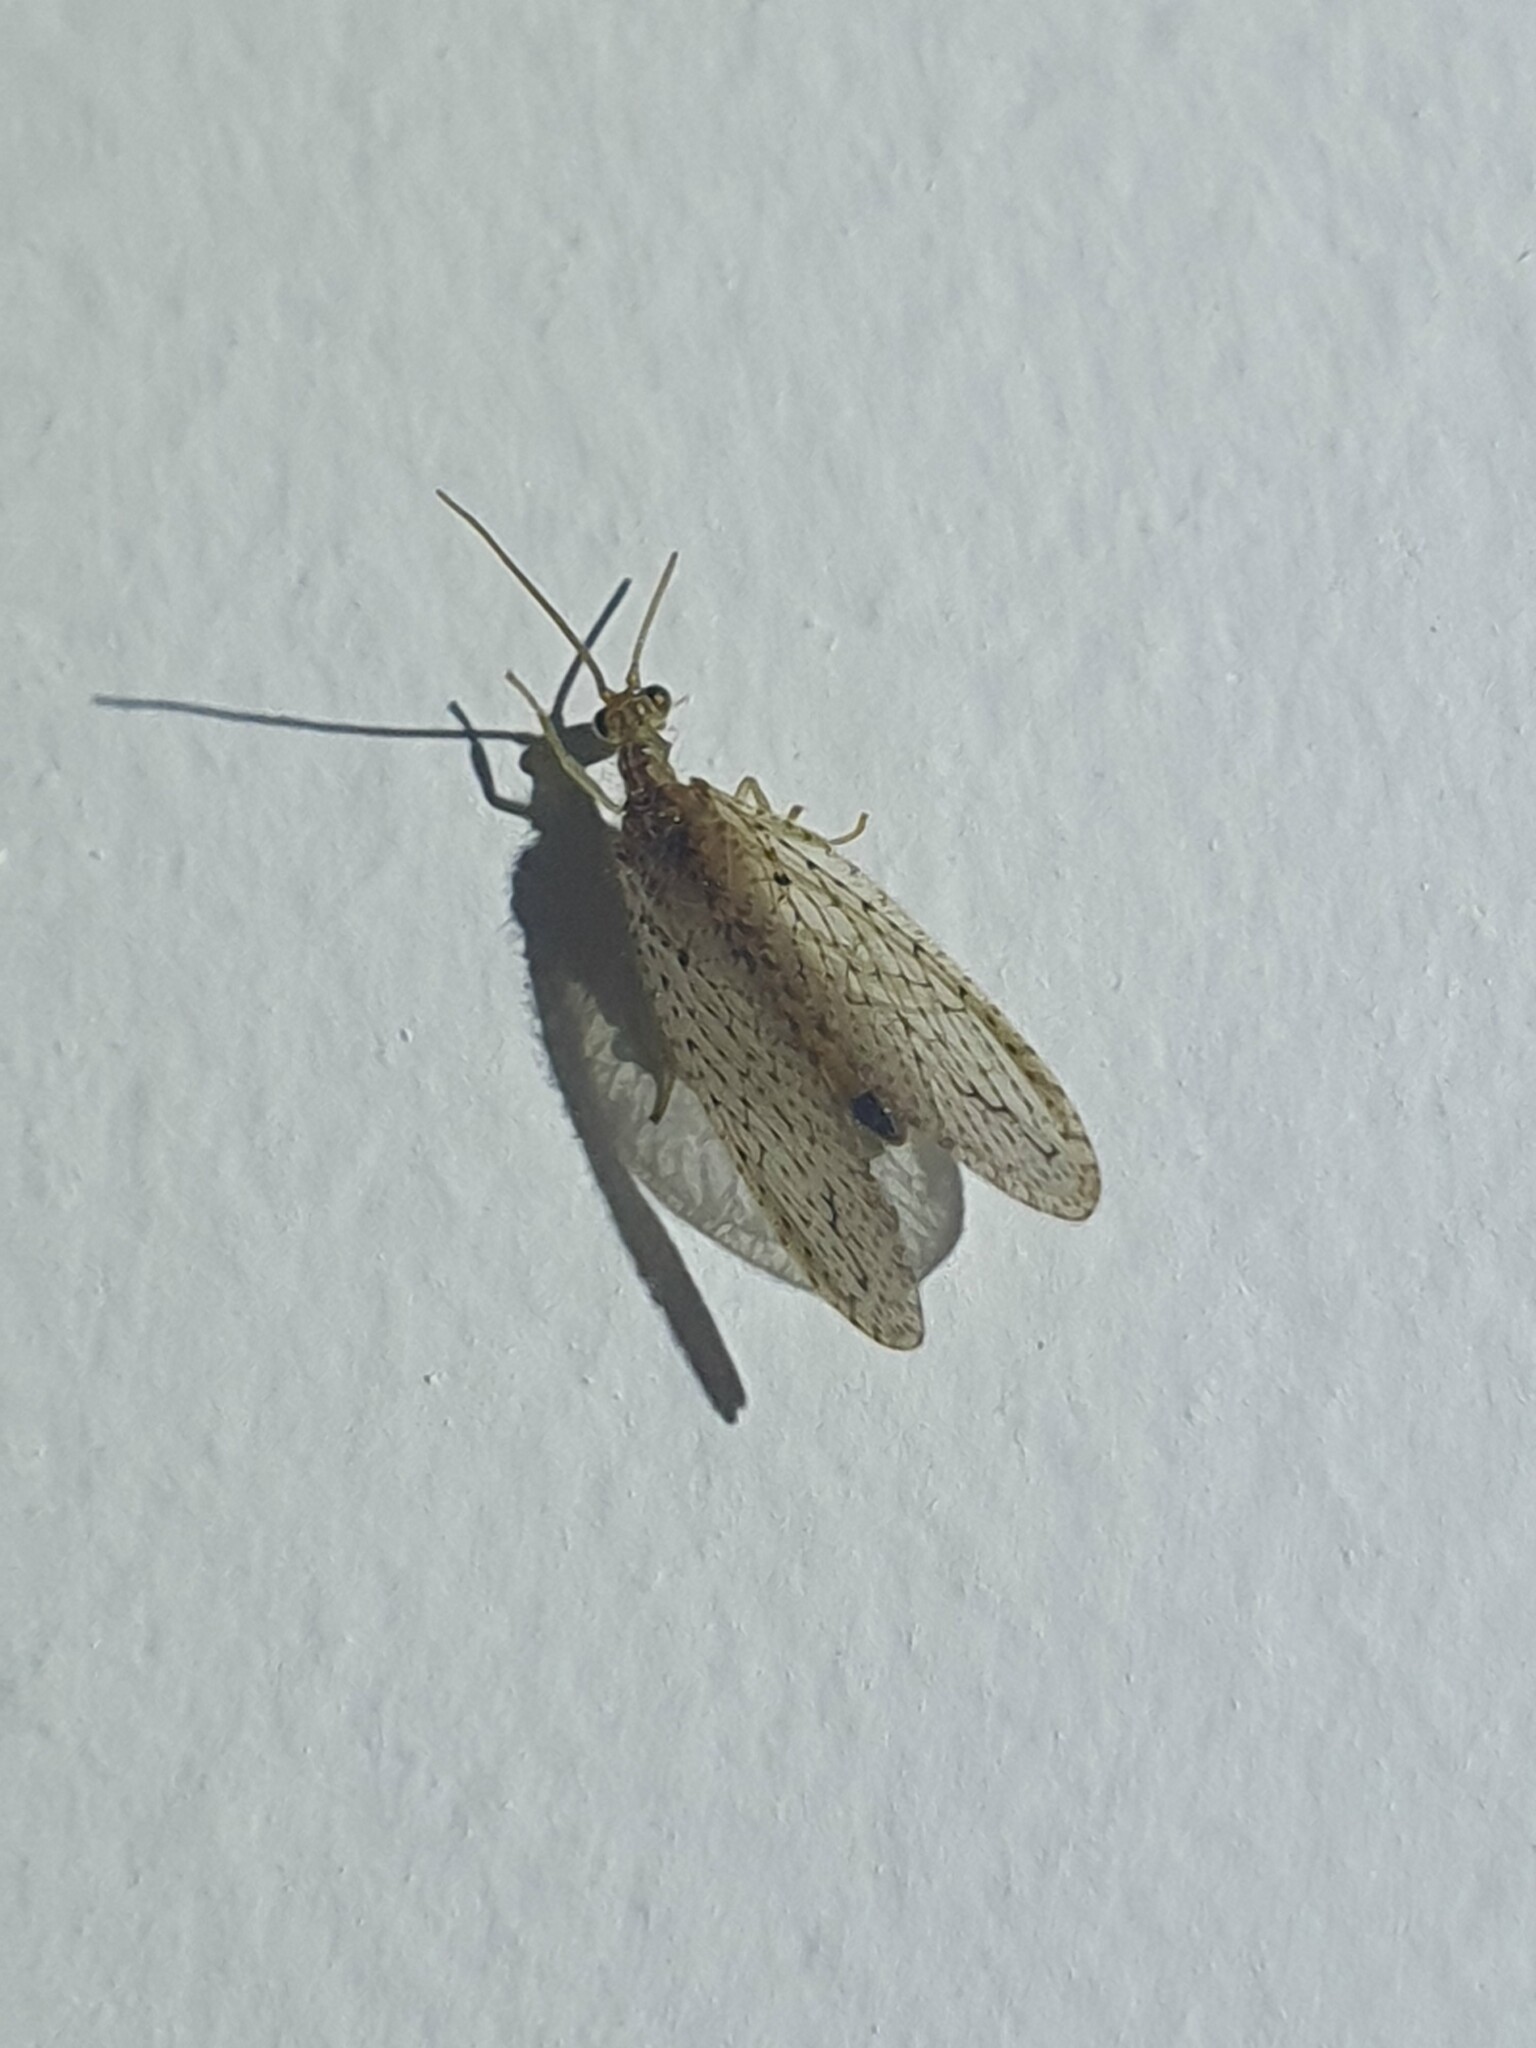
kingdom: Animalia
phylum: Arthropoda
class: Insecta
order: Neuroptera
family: Hemerobiidae
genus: Micromus
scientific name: Micromus tasmaniae
